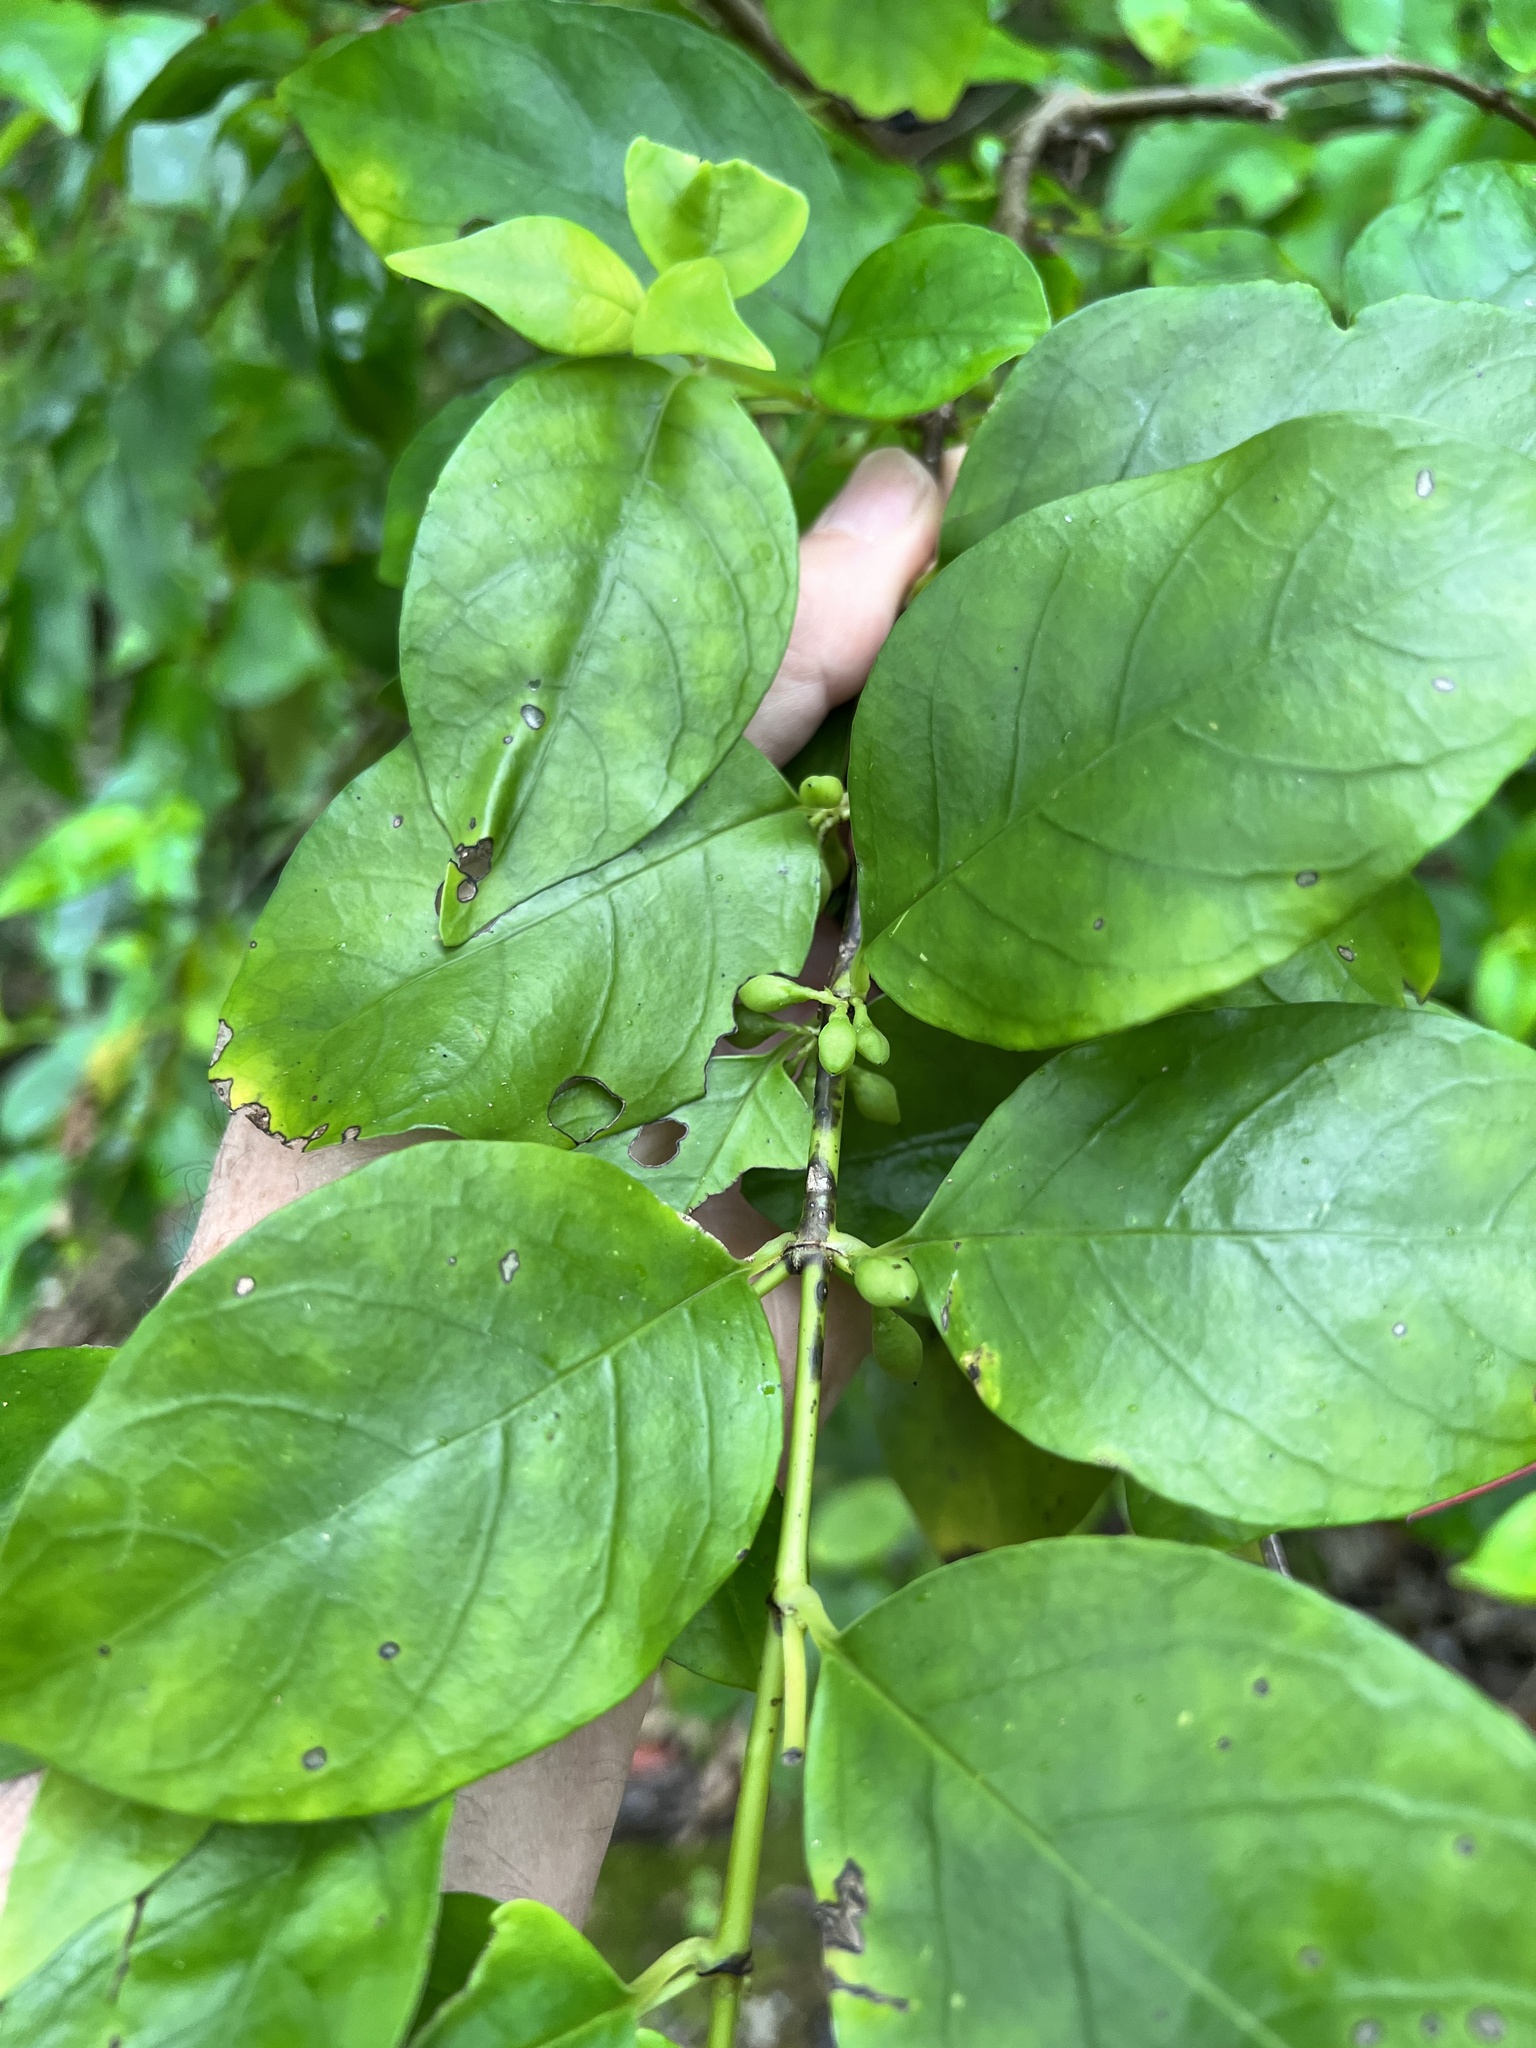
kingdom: Plantae
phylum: Tracheophyta
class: Magnoliopsida
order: Gentianales
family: Loganiaceae
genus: Geniostoma
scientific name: Geniostoma ligustrifolium
